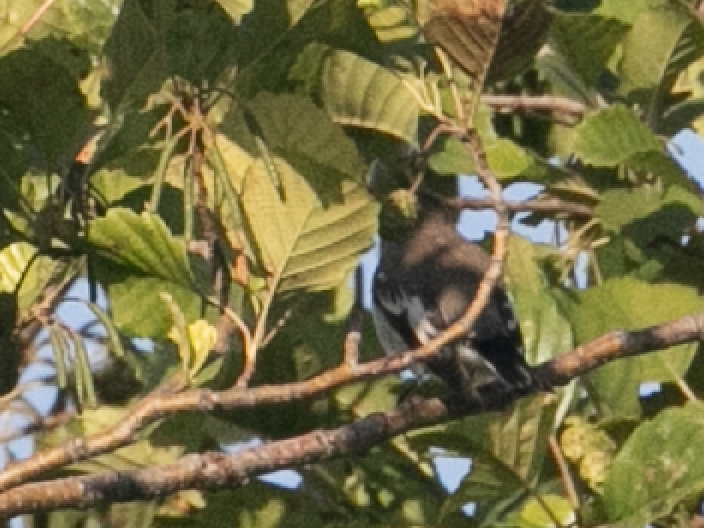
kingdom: Animalia
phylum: Chordata
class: Aves
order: Passeriformes
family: Muscicapidae
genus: Ficedula
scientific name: Ficedula hypoleuca
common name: European pied flycatcher
